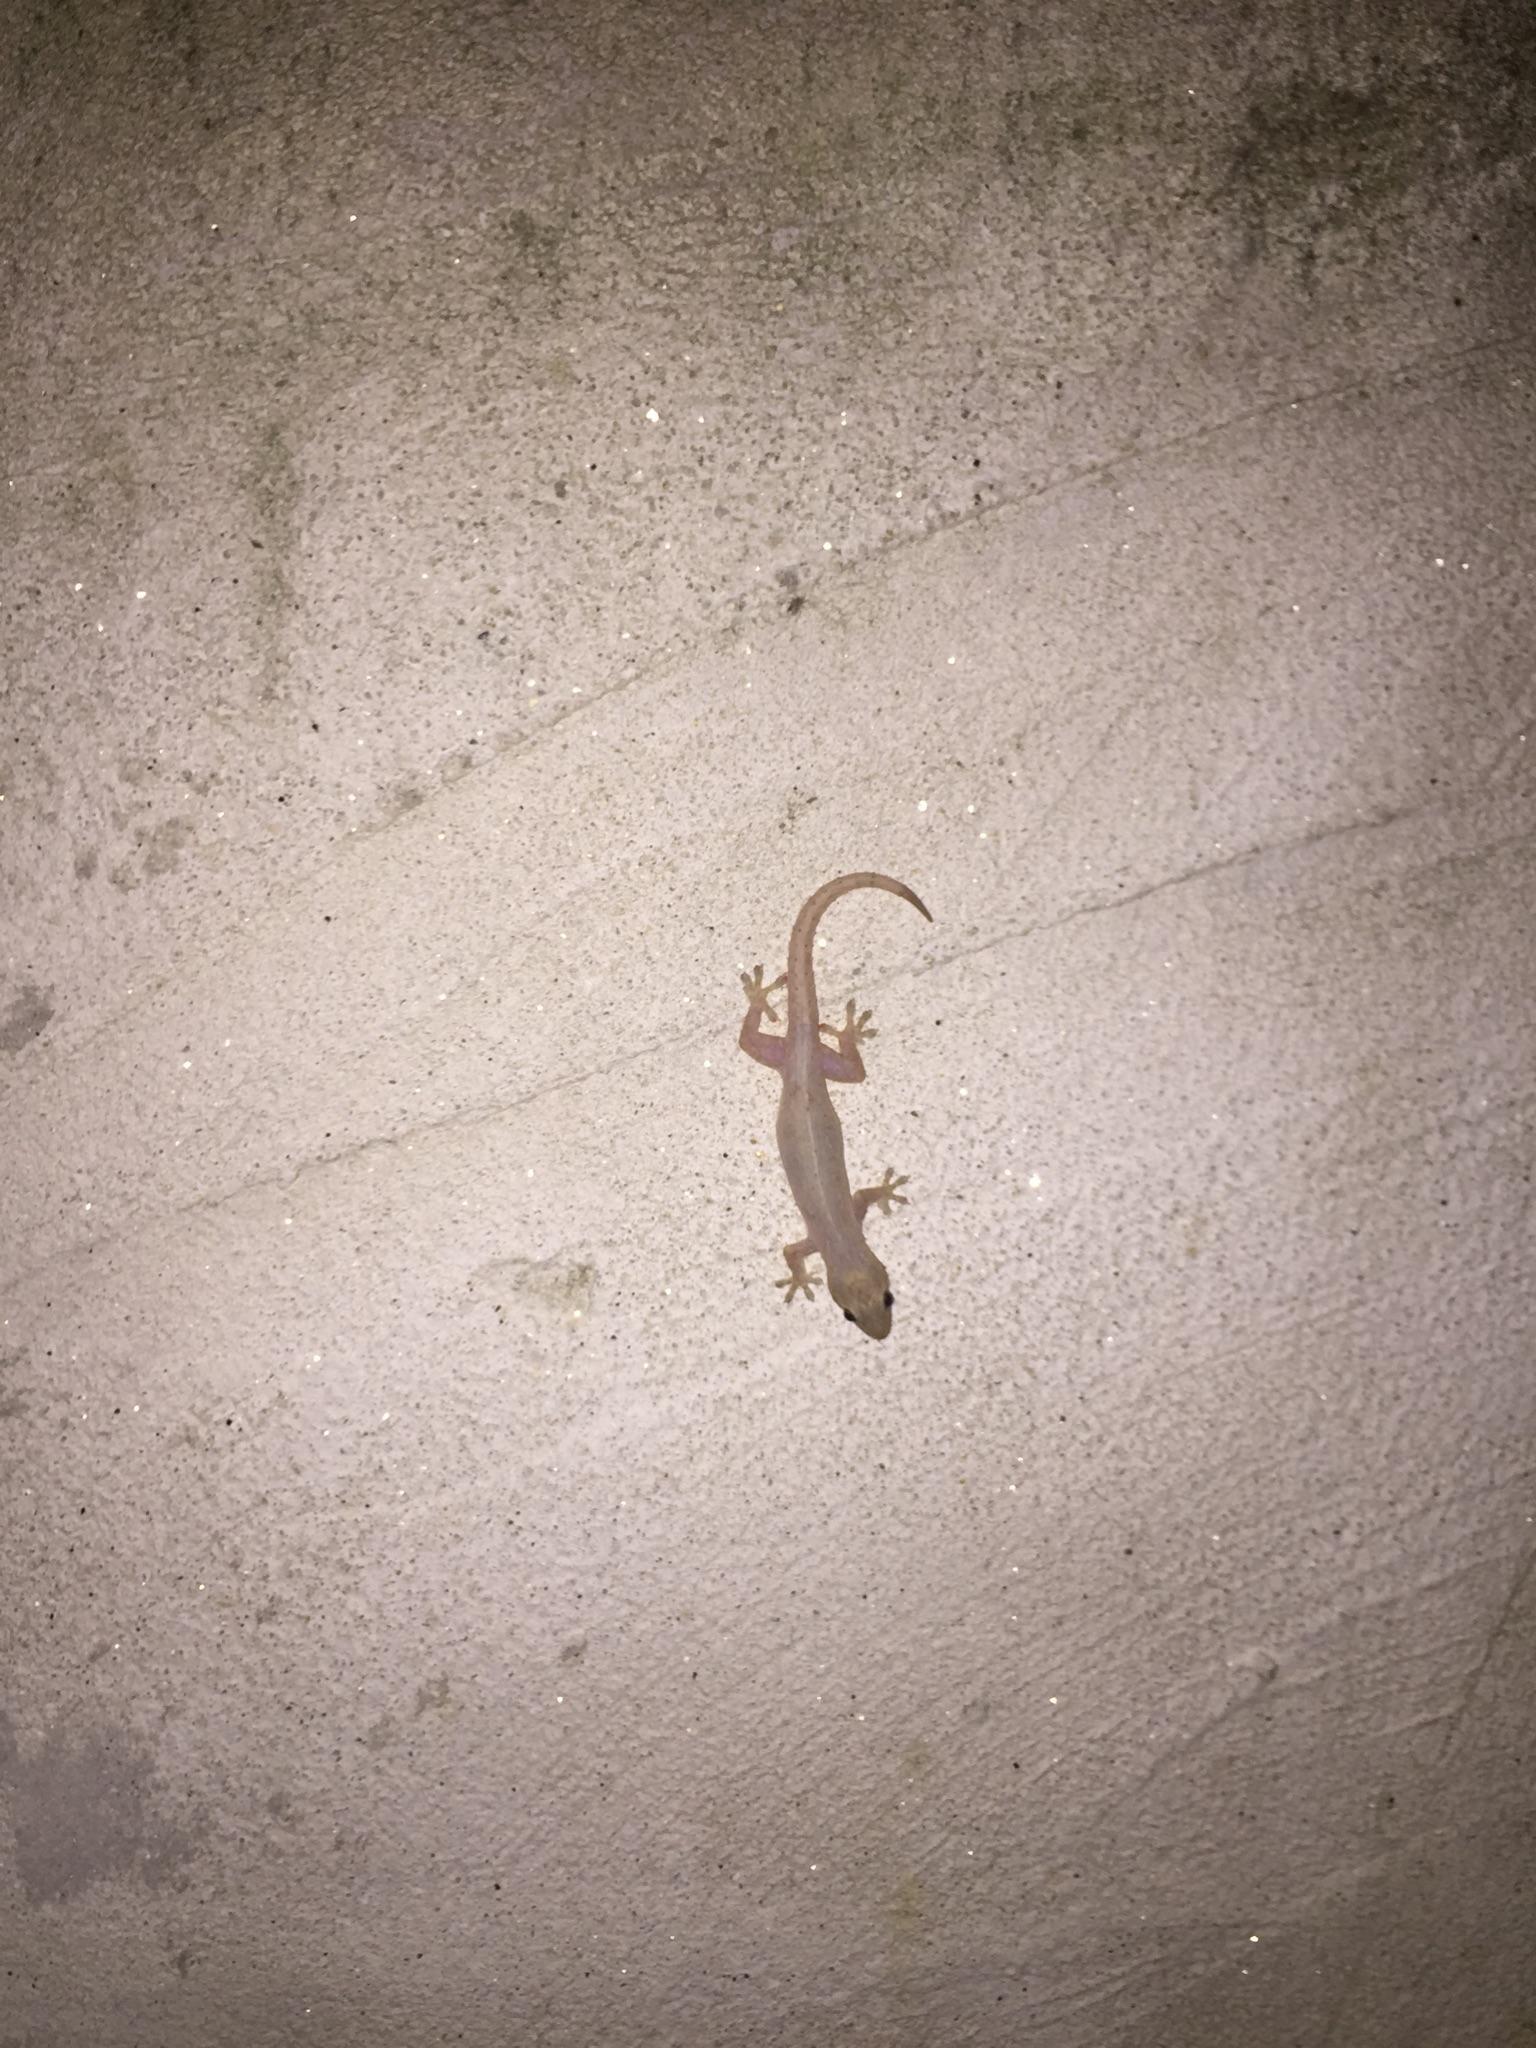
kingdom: Animalia
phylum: Chordata
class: Squamata
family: Gekkonidae
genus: Hemidactylus
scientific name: Hemidactylus frenatus
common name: Common house gecko
